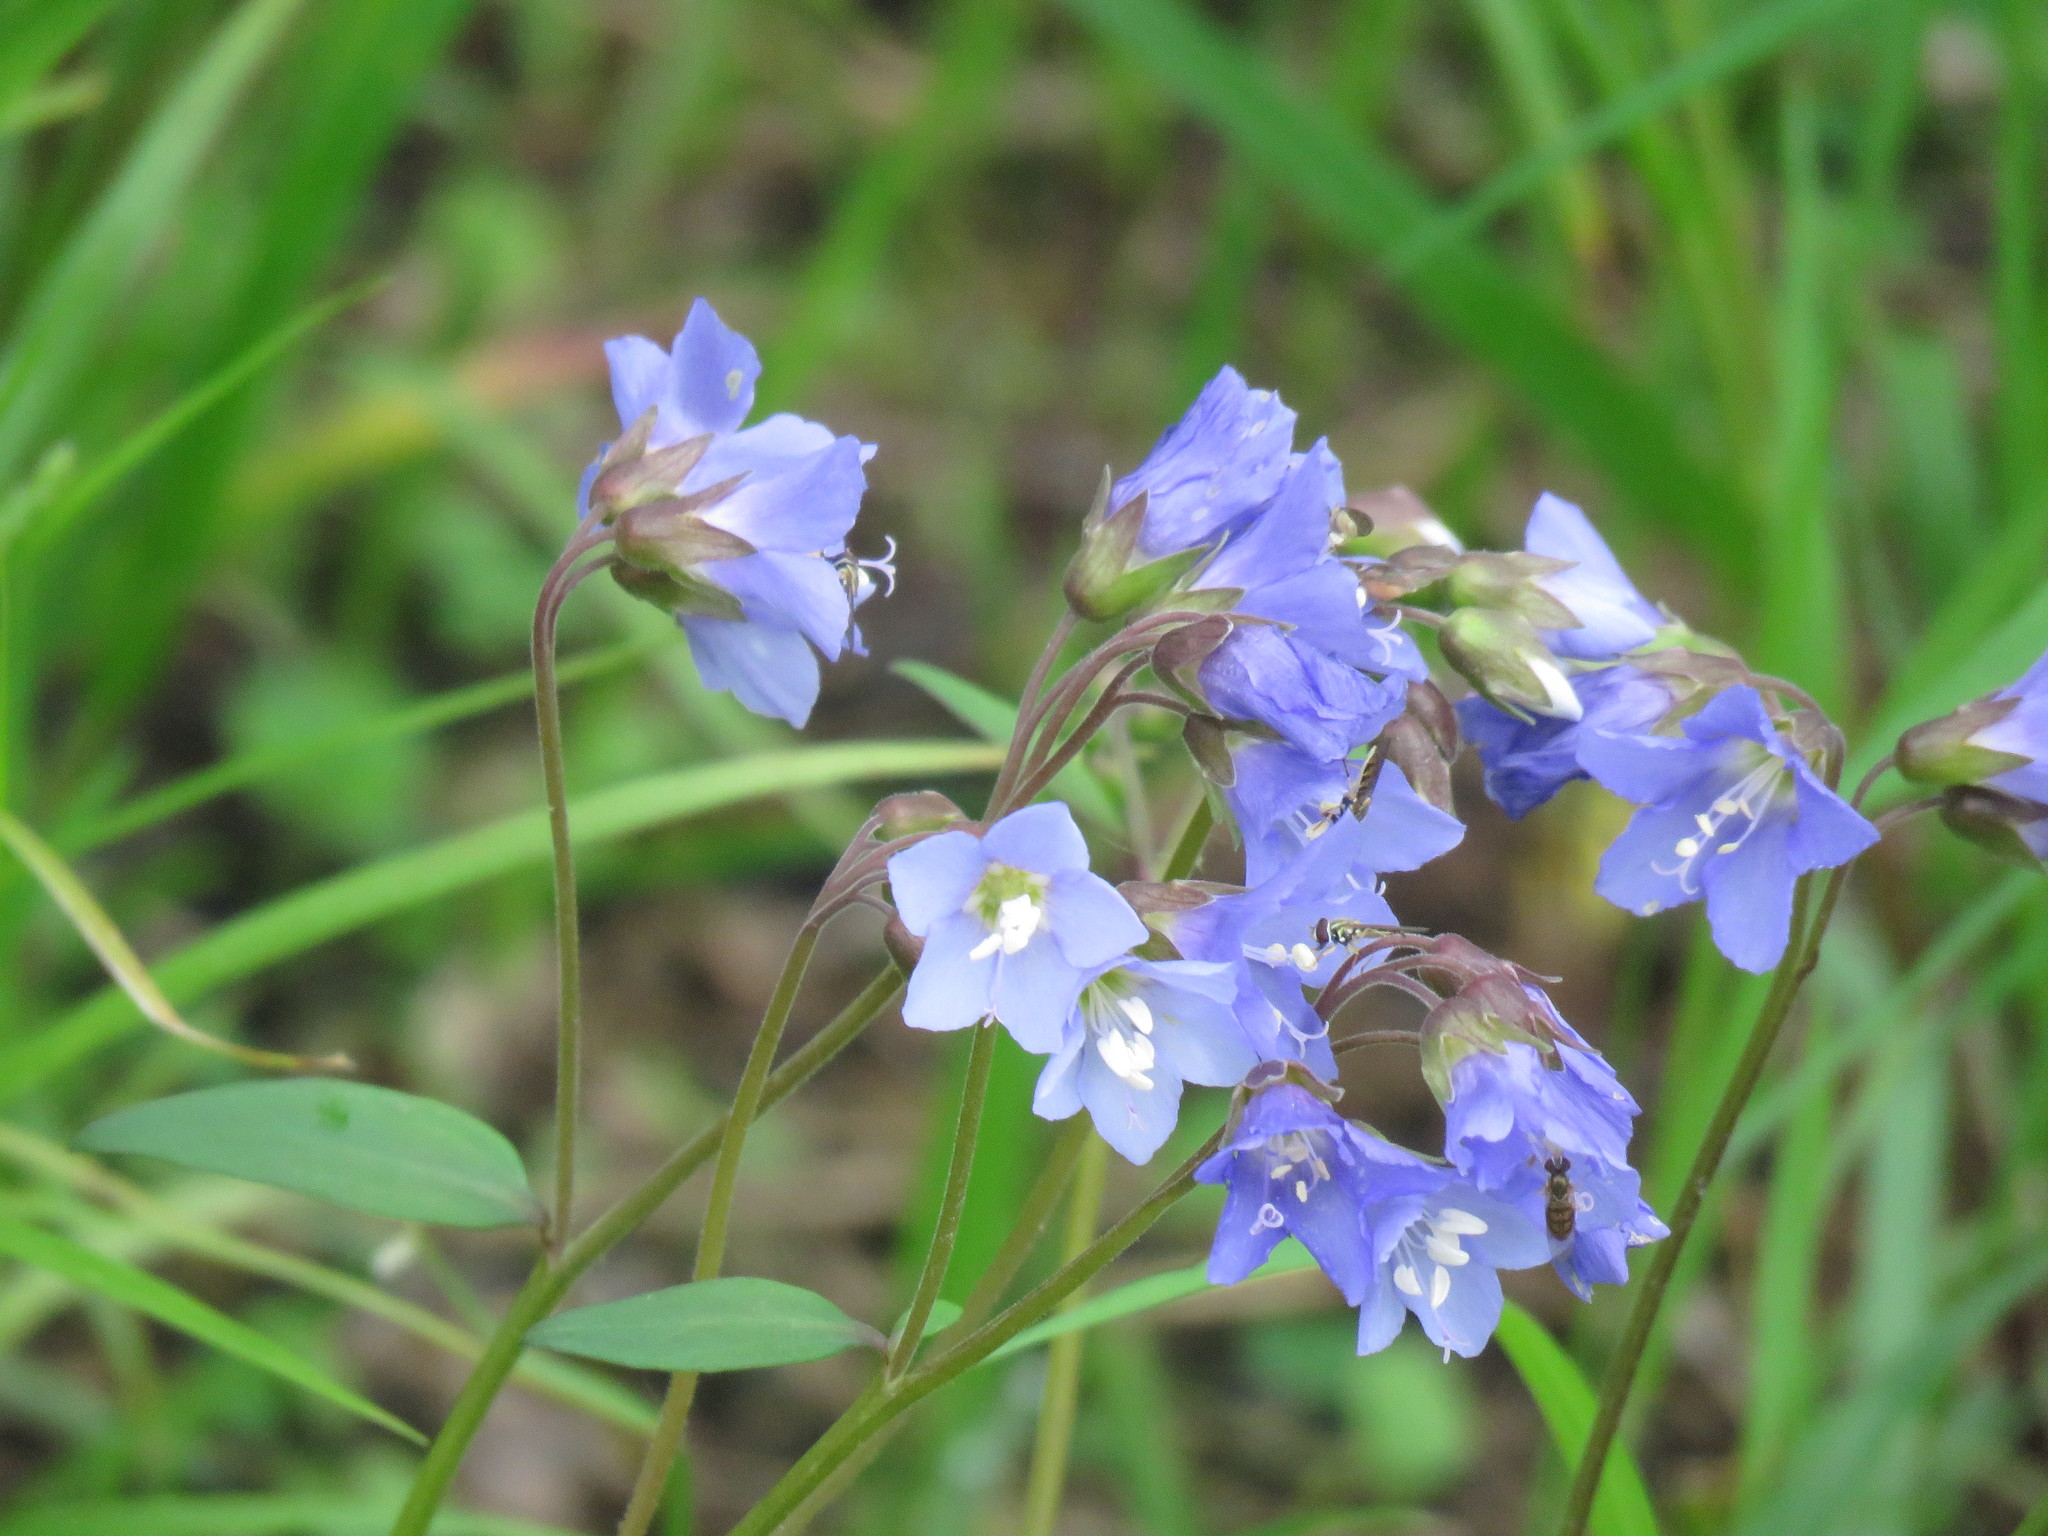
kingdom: Plantae
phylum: Tracheophyta
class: Magnoliopsida
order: Ericales
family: Polemoniaceae
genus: Polemonium
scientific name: Polemonium reptans
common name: Creeping jacob's-ladder
